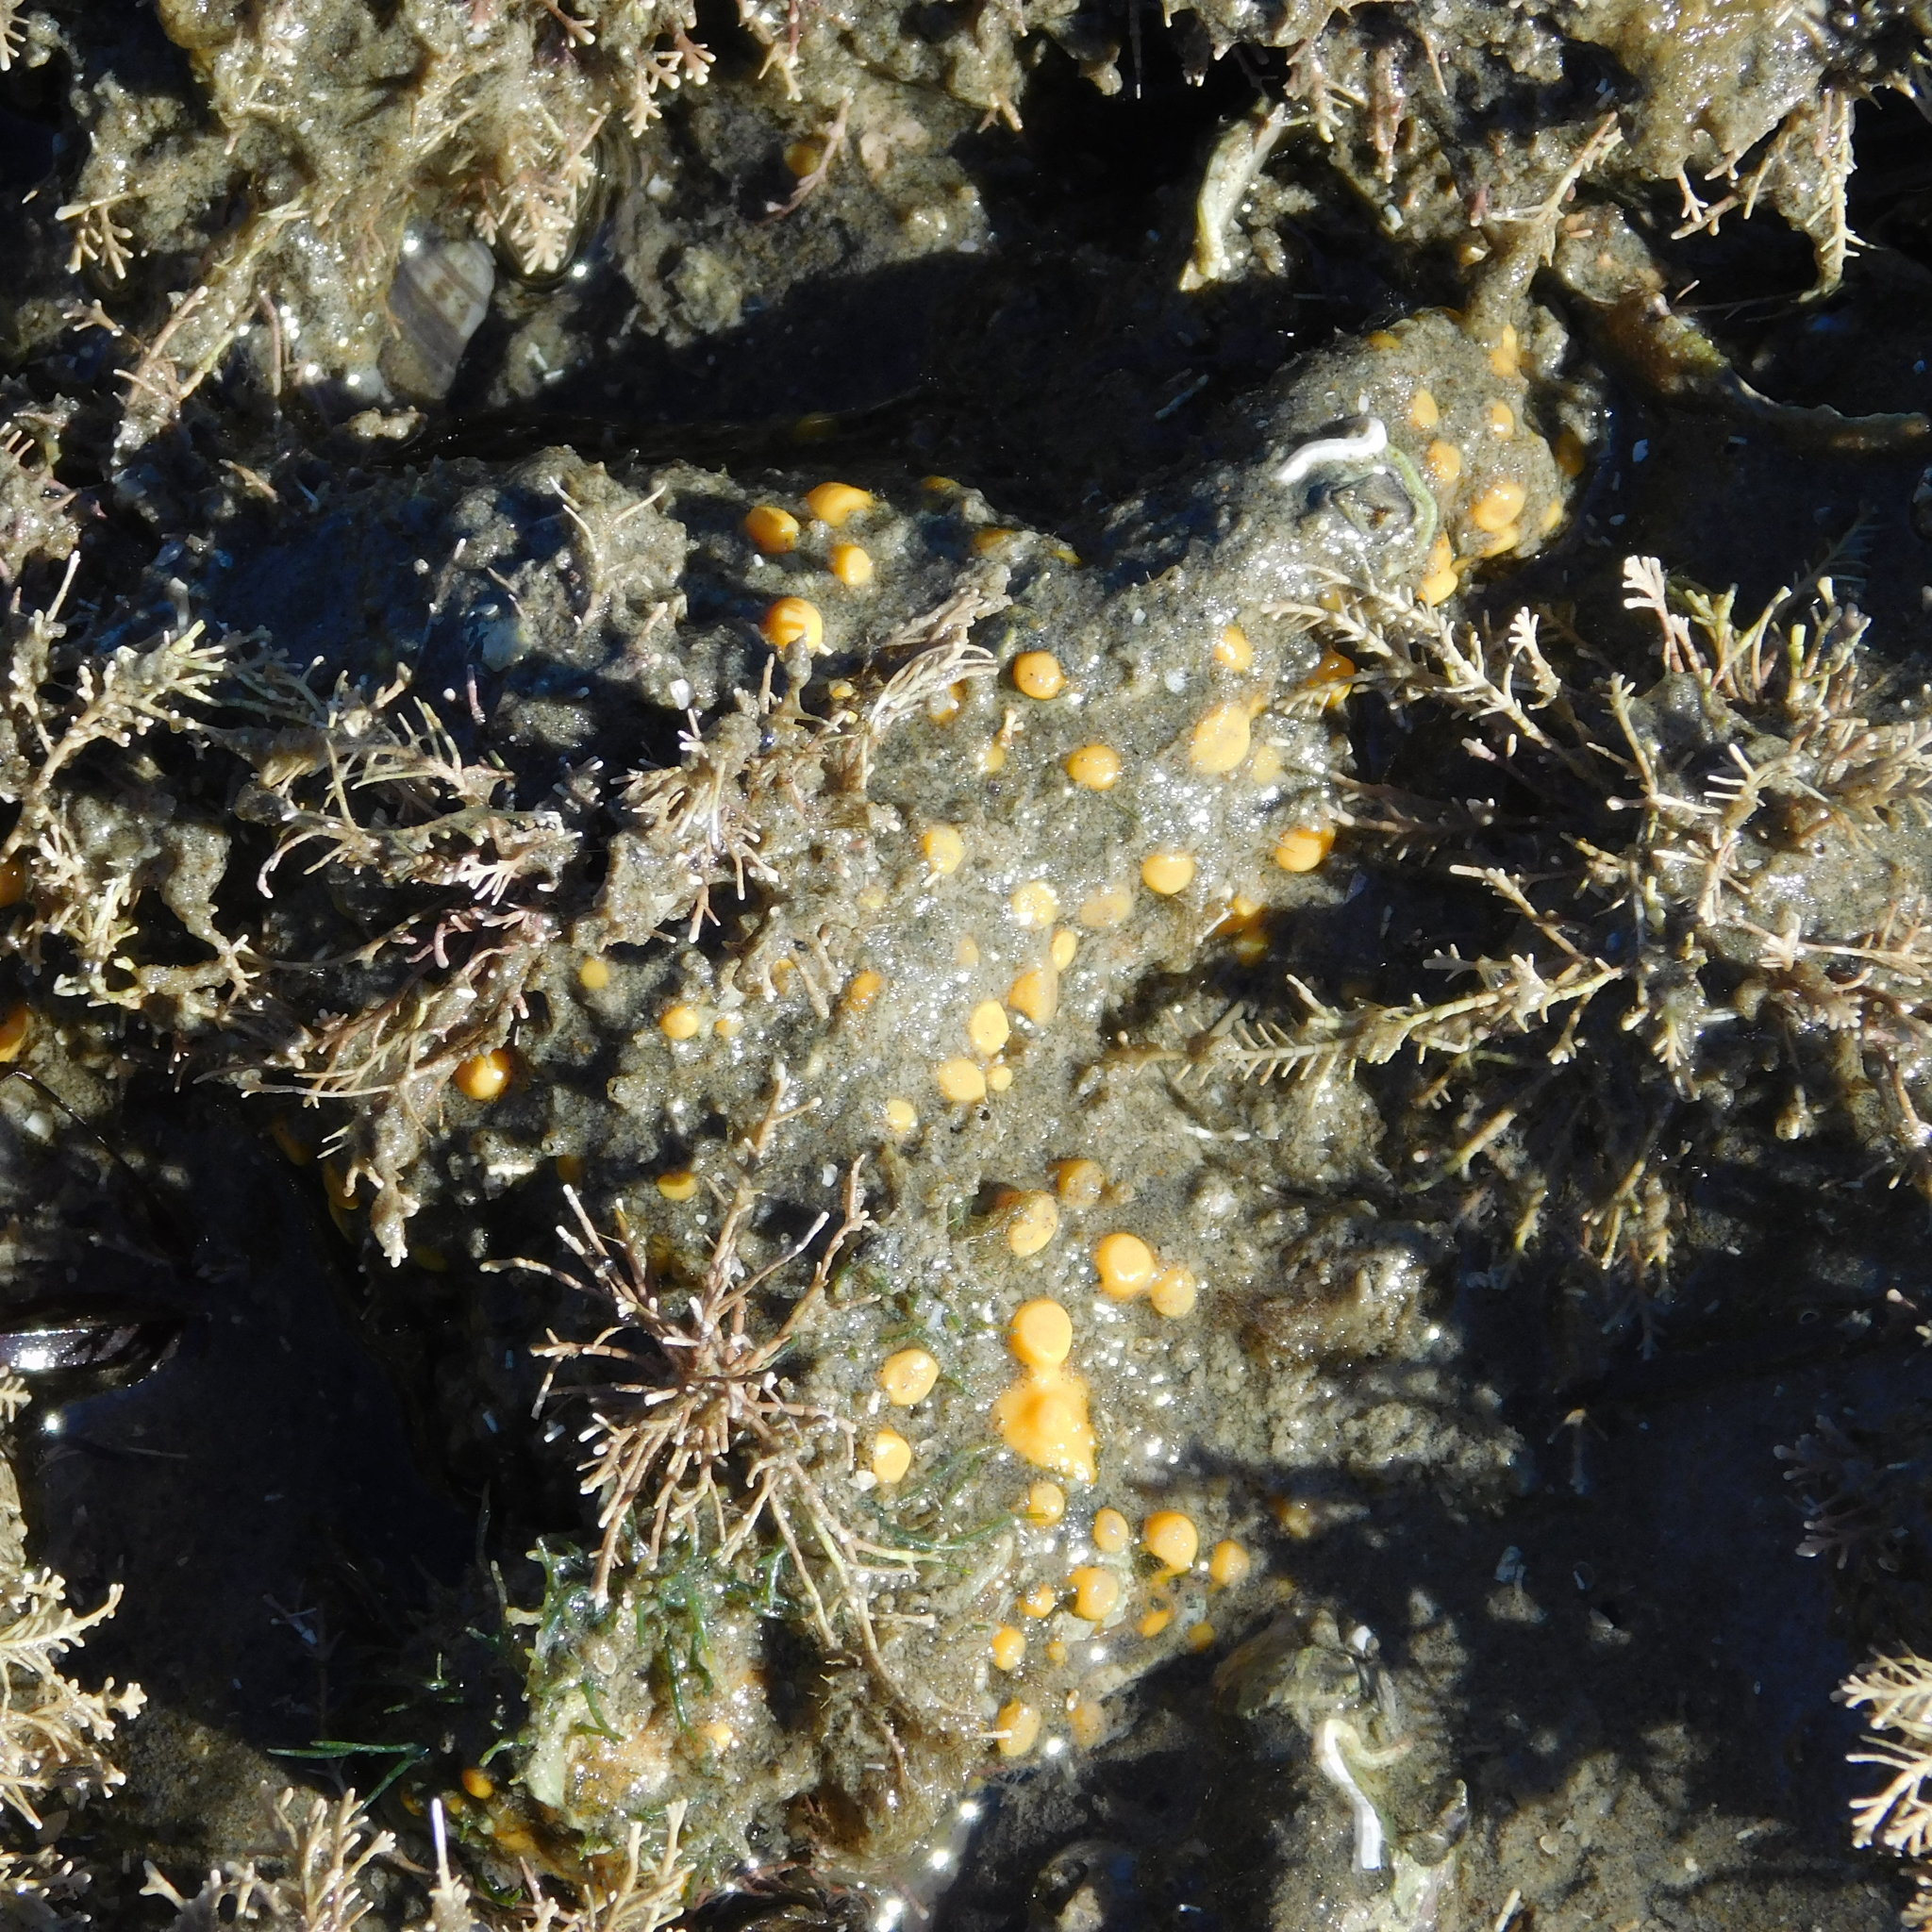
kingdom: Animalia
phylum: Porifera
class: Demospongiae
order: Clionaida
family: Clionaidae
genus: Cliona
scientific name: Cliona celata
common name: Boring sponge
